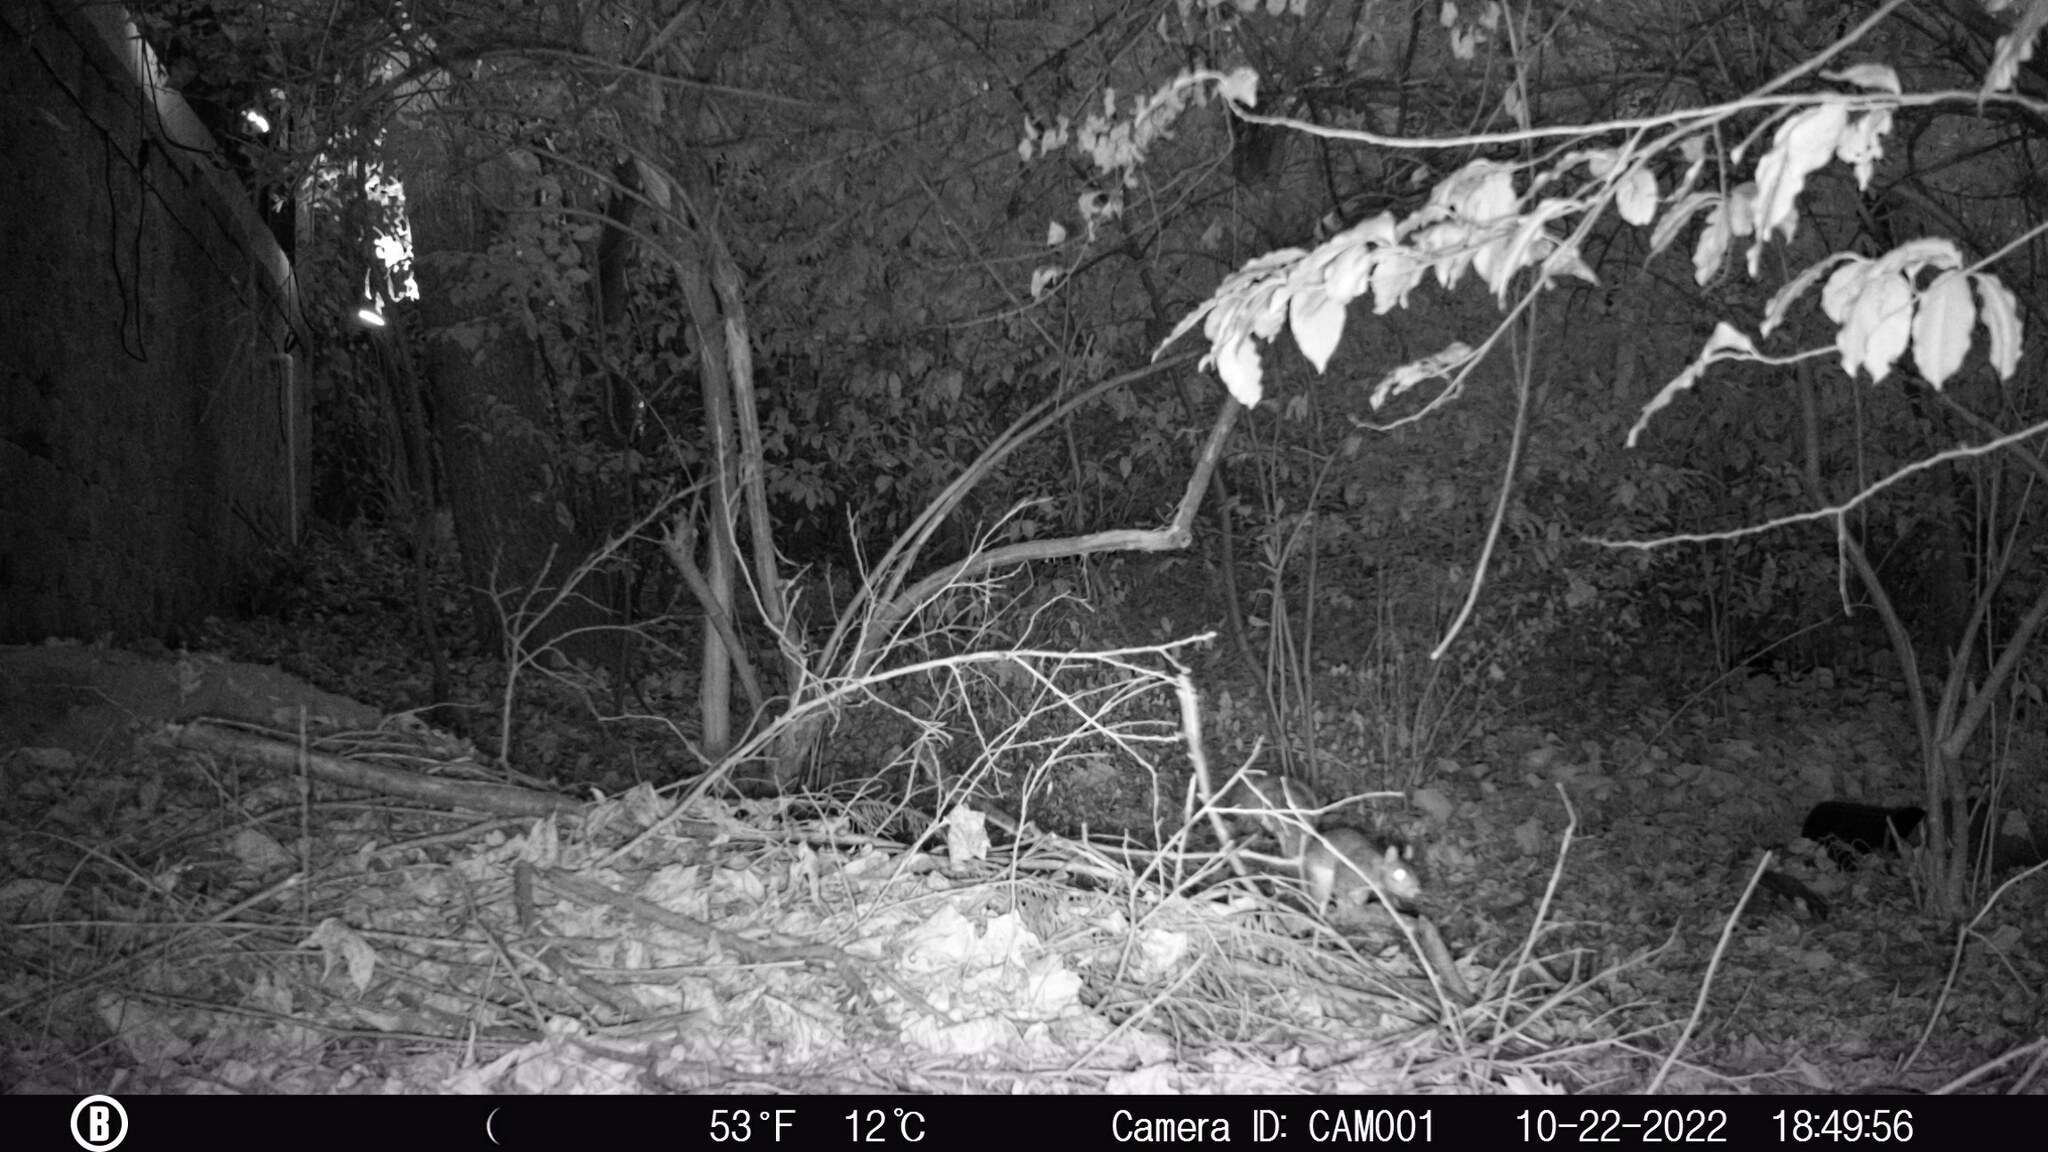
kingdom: Animalia
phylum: Chordata
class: Mammalia
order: Rodentia
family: Sciuridae
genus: Sciurus
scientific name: Sciurus carolinensis
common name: Eastern gray squirrel
